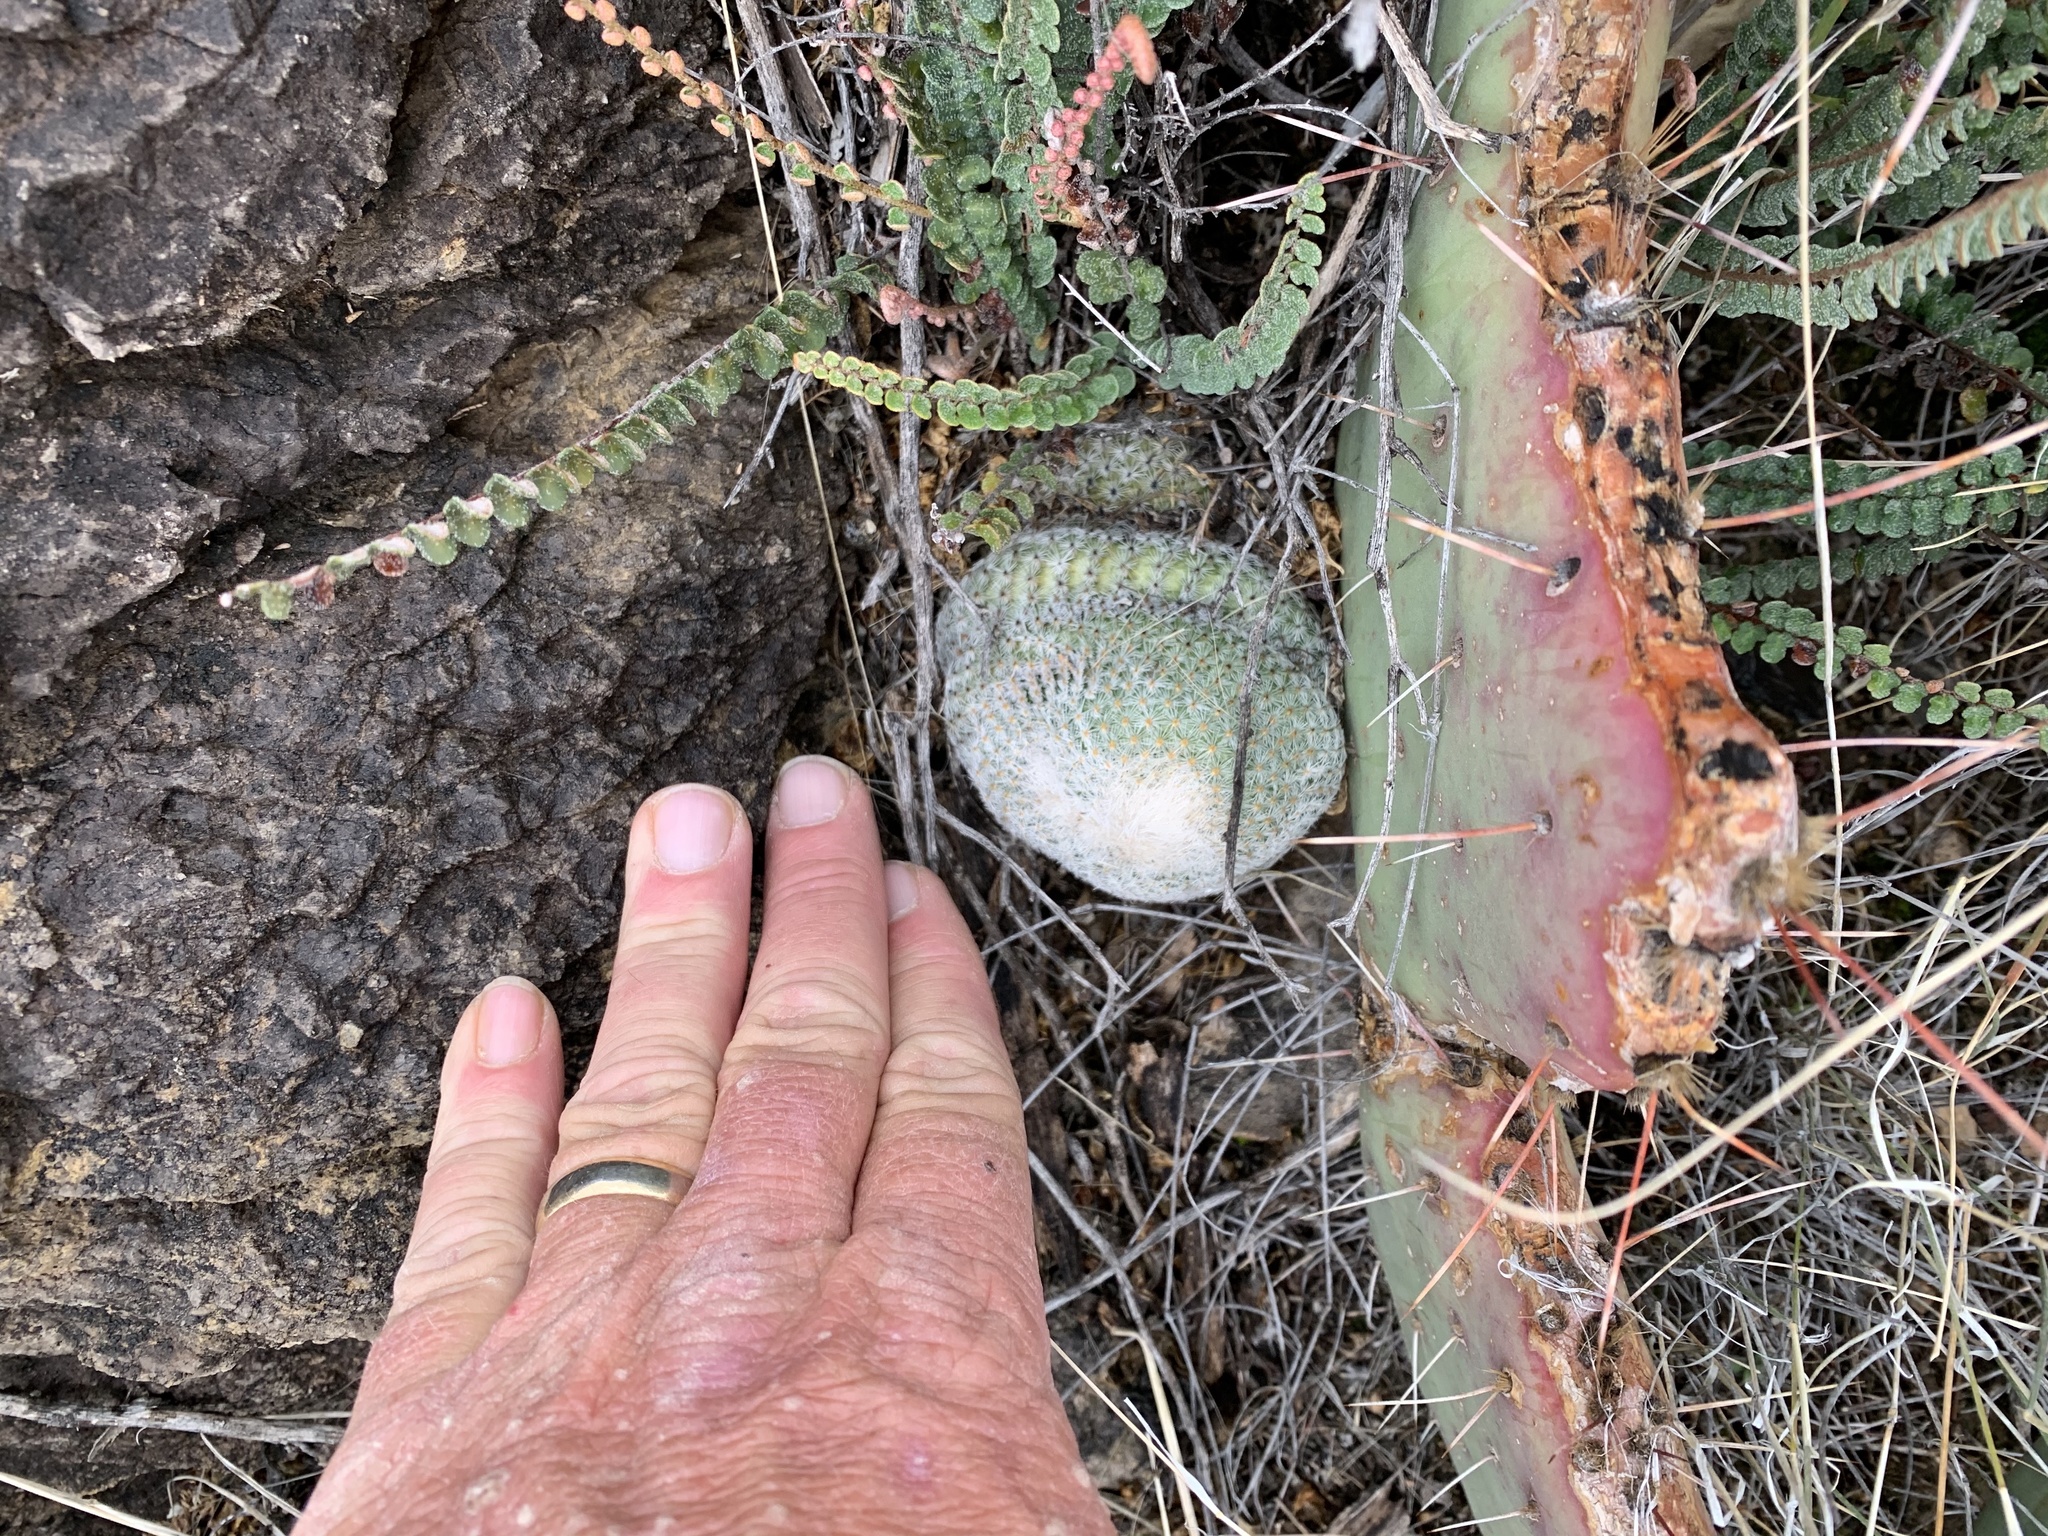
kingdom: Plantae
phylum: Tracheophyta
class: Magnoliopsida
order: Caryophyllales
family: Cactaceae
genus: Epithelantha
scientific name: Epithelantha micromeris
